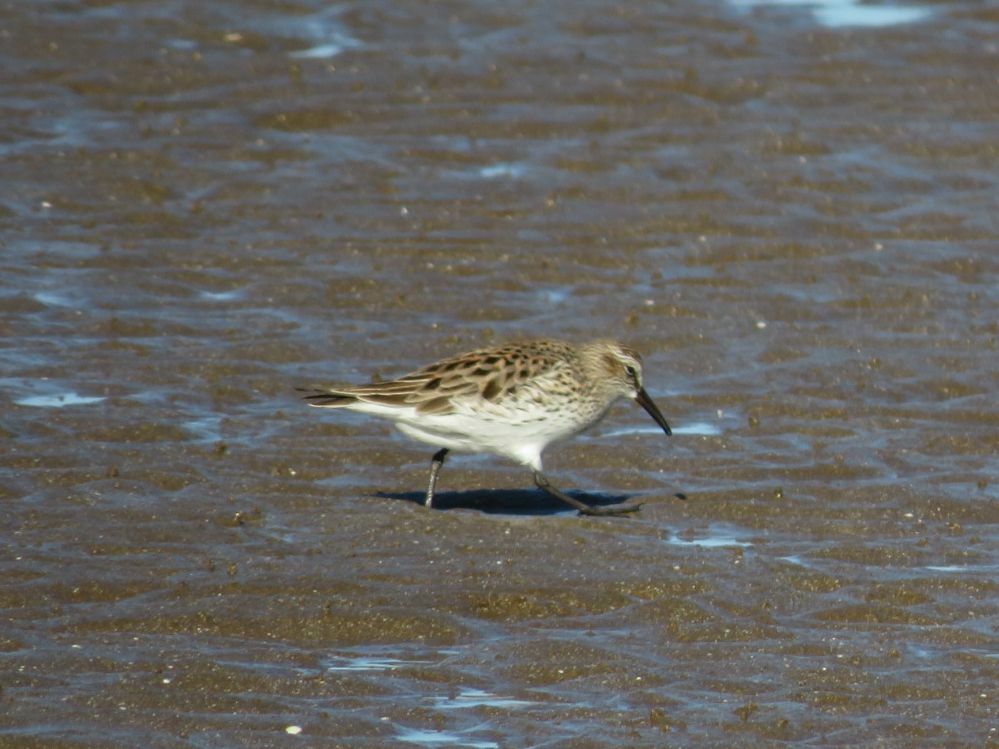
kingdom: Animalia
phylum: Chordata
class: Aves
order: Charadriiformes
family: Scolopacidae
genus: Calidris
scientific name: Calidris fuscicollis
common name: White-rumped sandpiper
